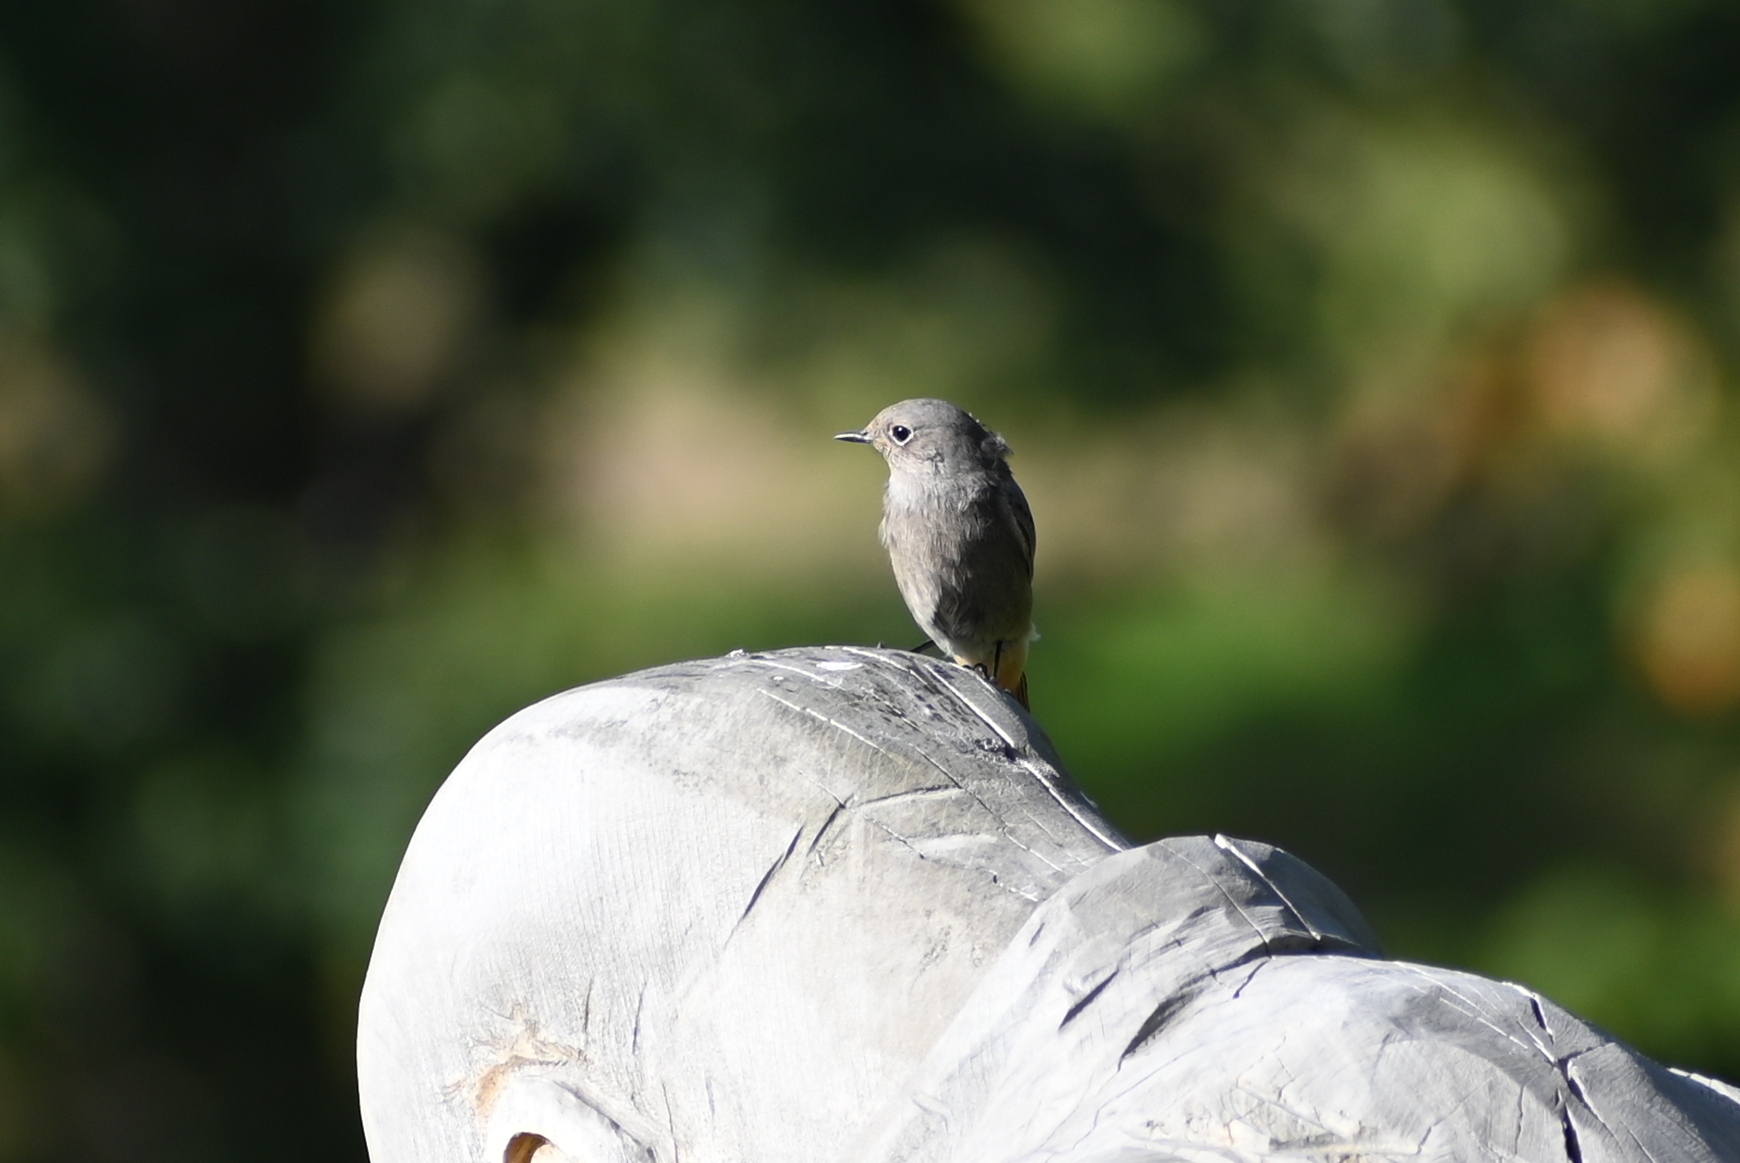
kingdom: Animalia
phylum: Chordata
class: Aves
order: Passeriformes
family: Muscicapidae
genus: Phoenicurus
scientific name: Phoenicurus ochruros
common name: Black redstart
